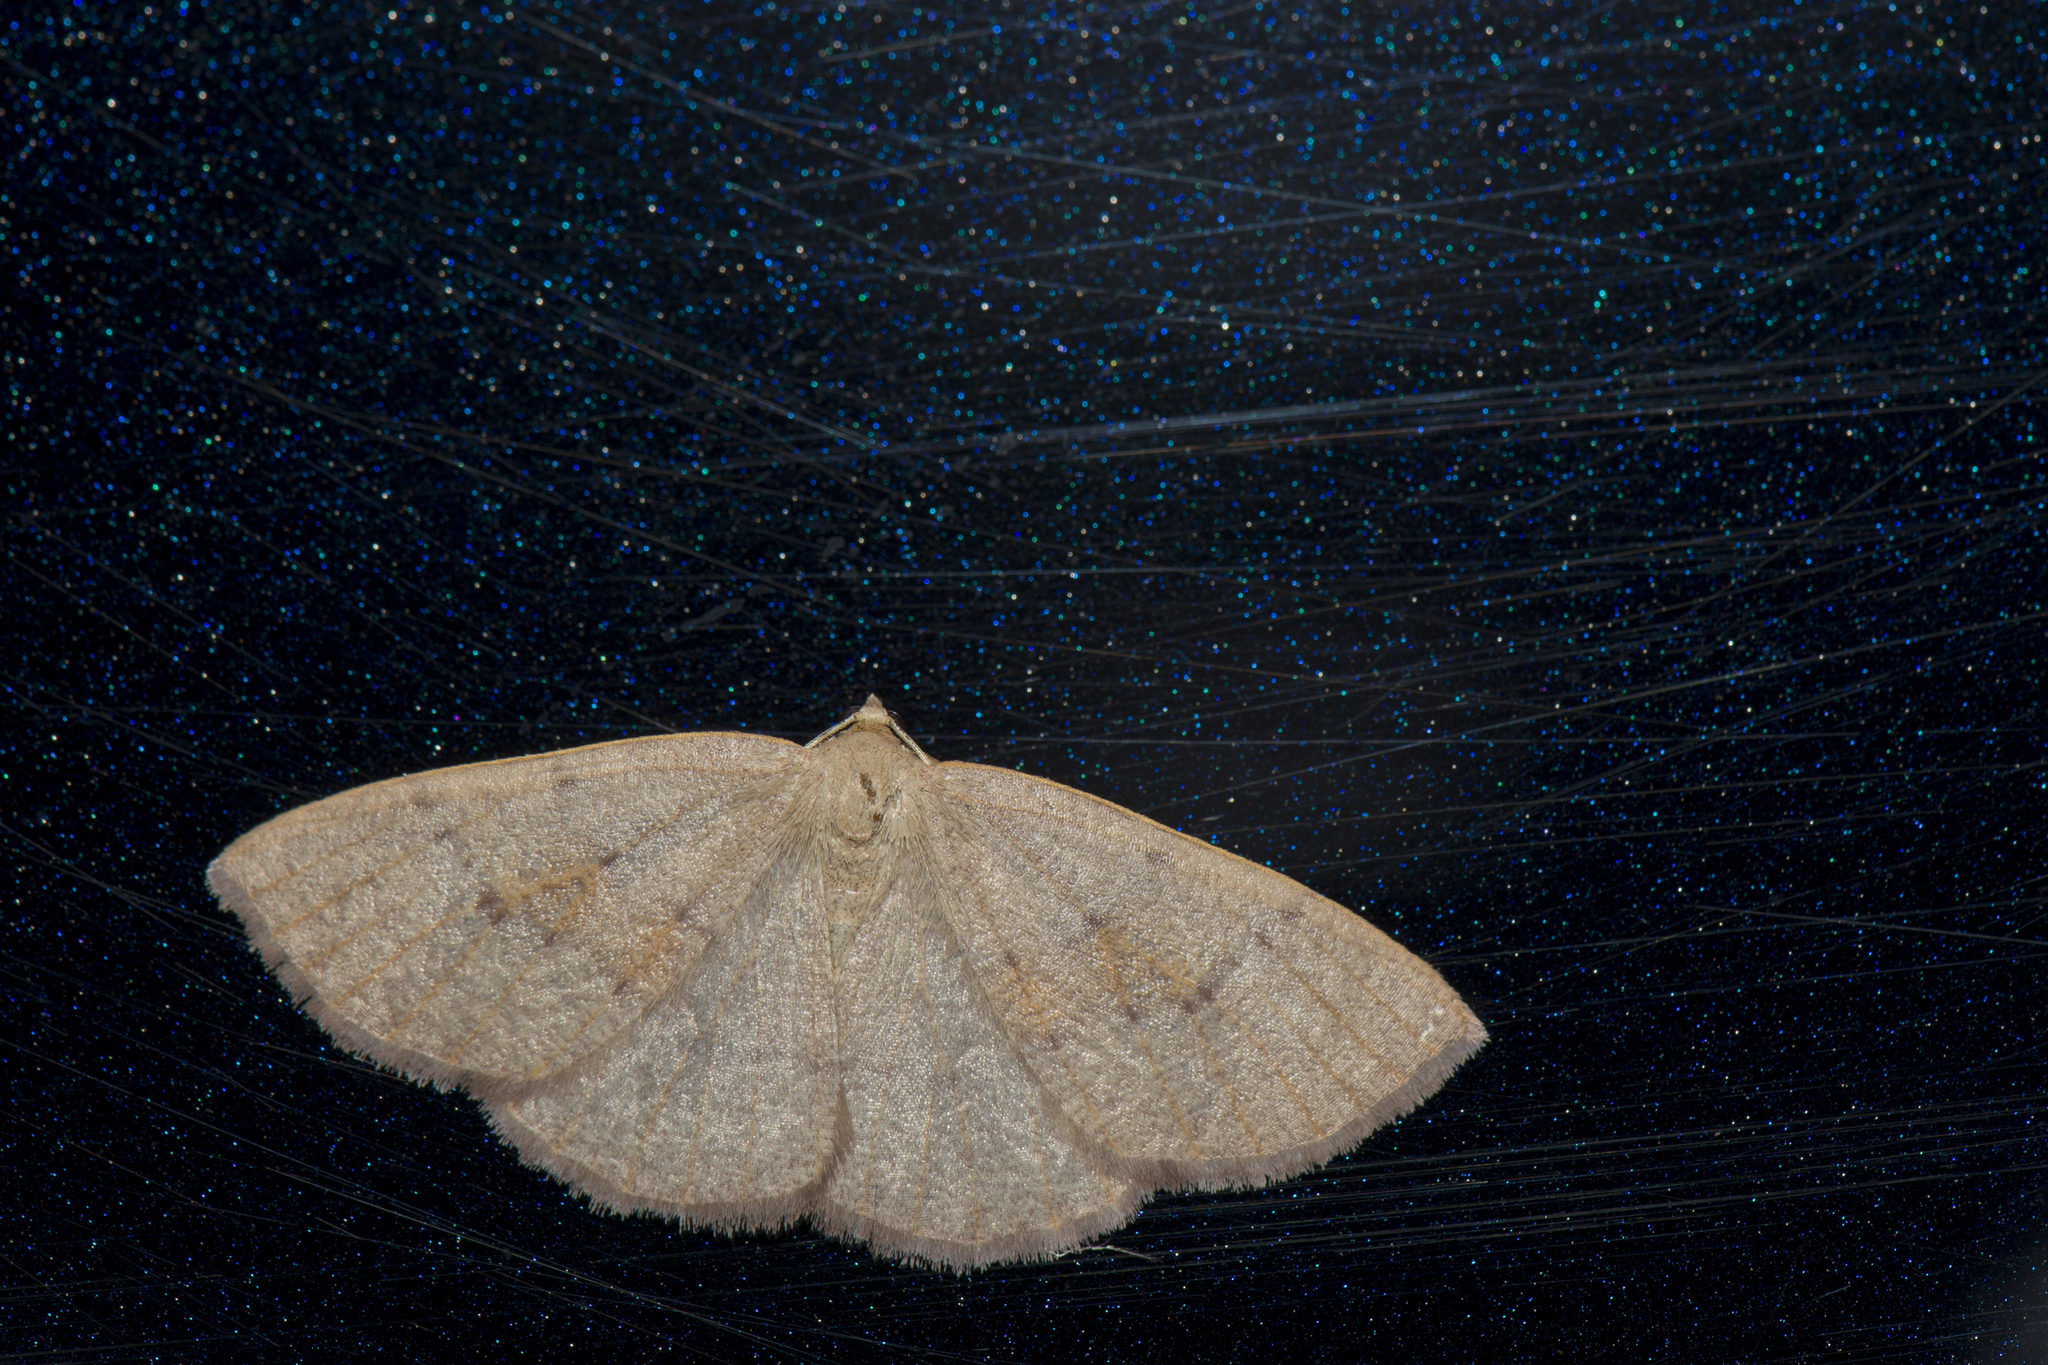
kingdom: Animalia
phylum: Arthropoda
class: Insecta
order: Lepidoptera
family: Geometridae
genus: Meteima
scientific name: Meteima mediorufa
